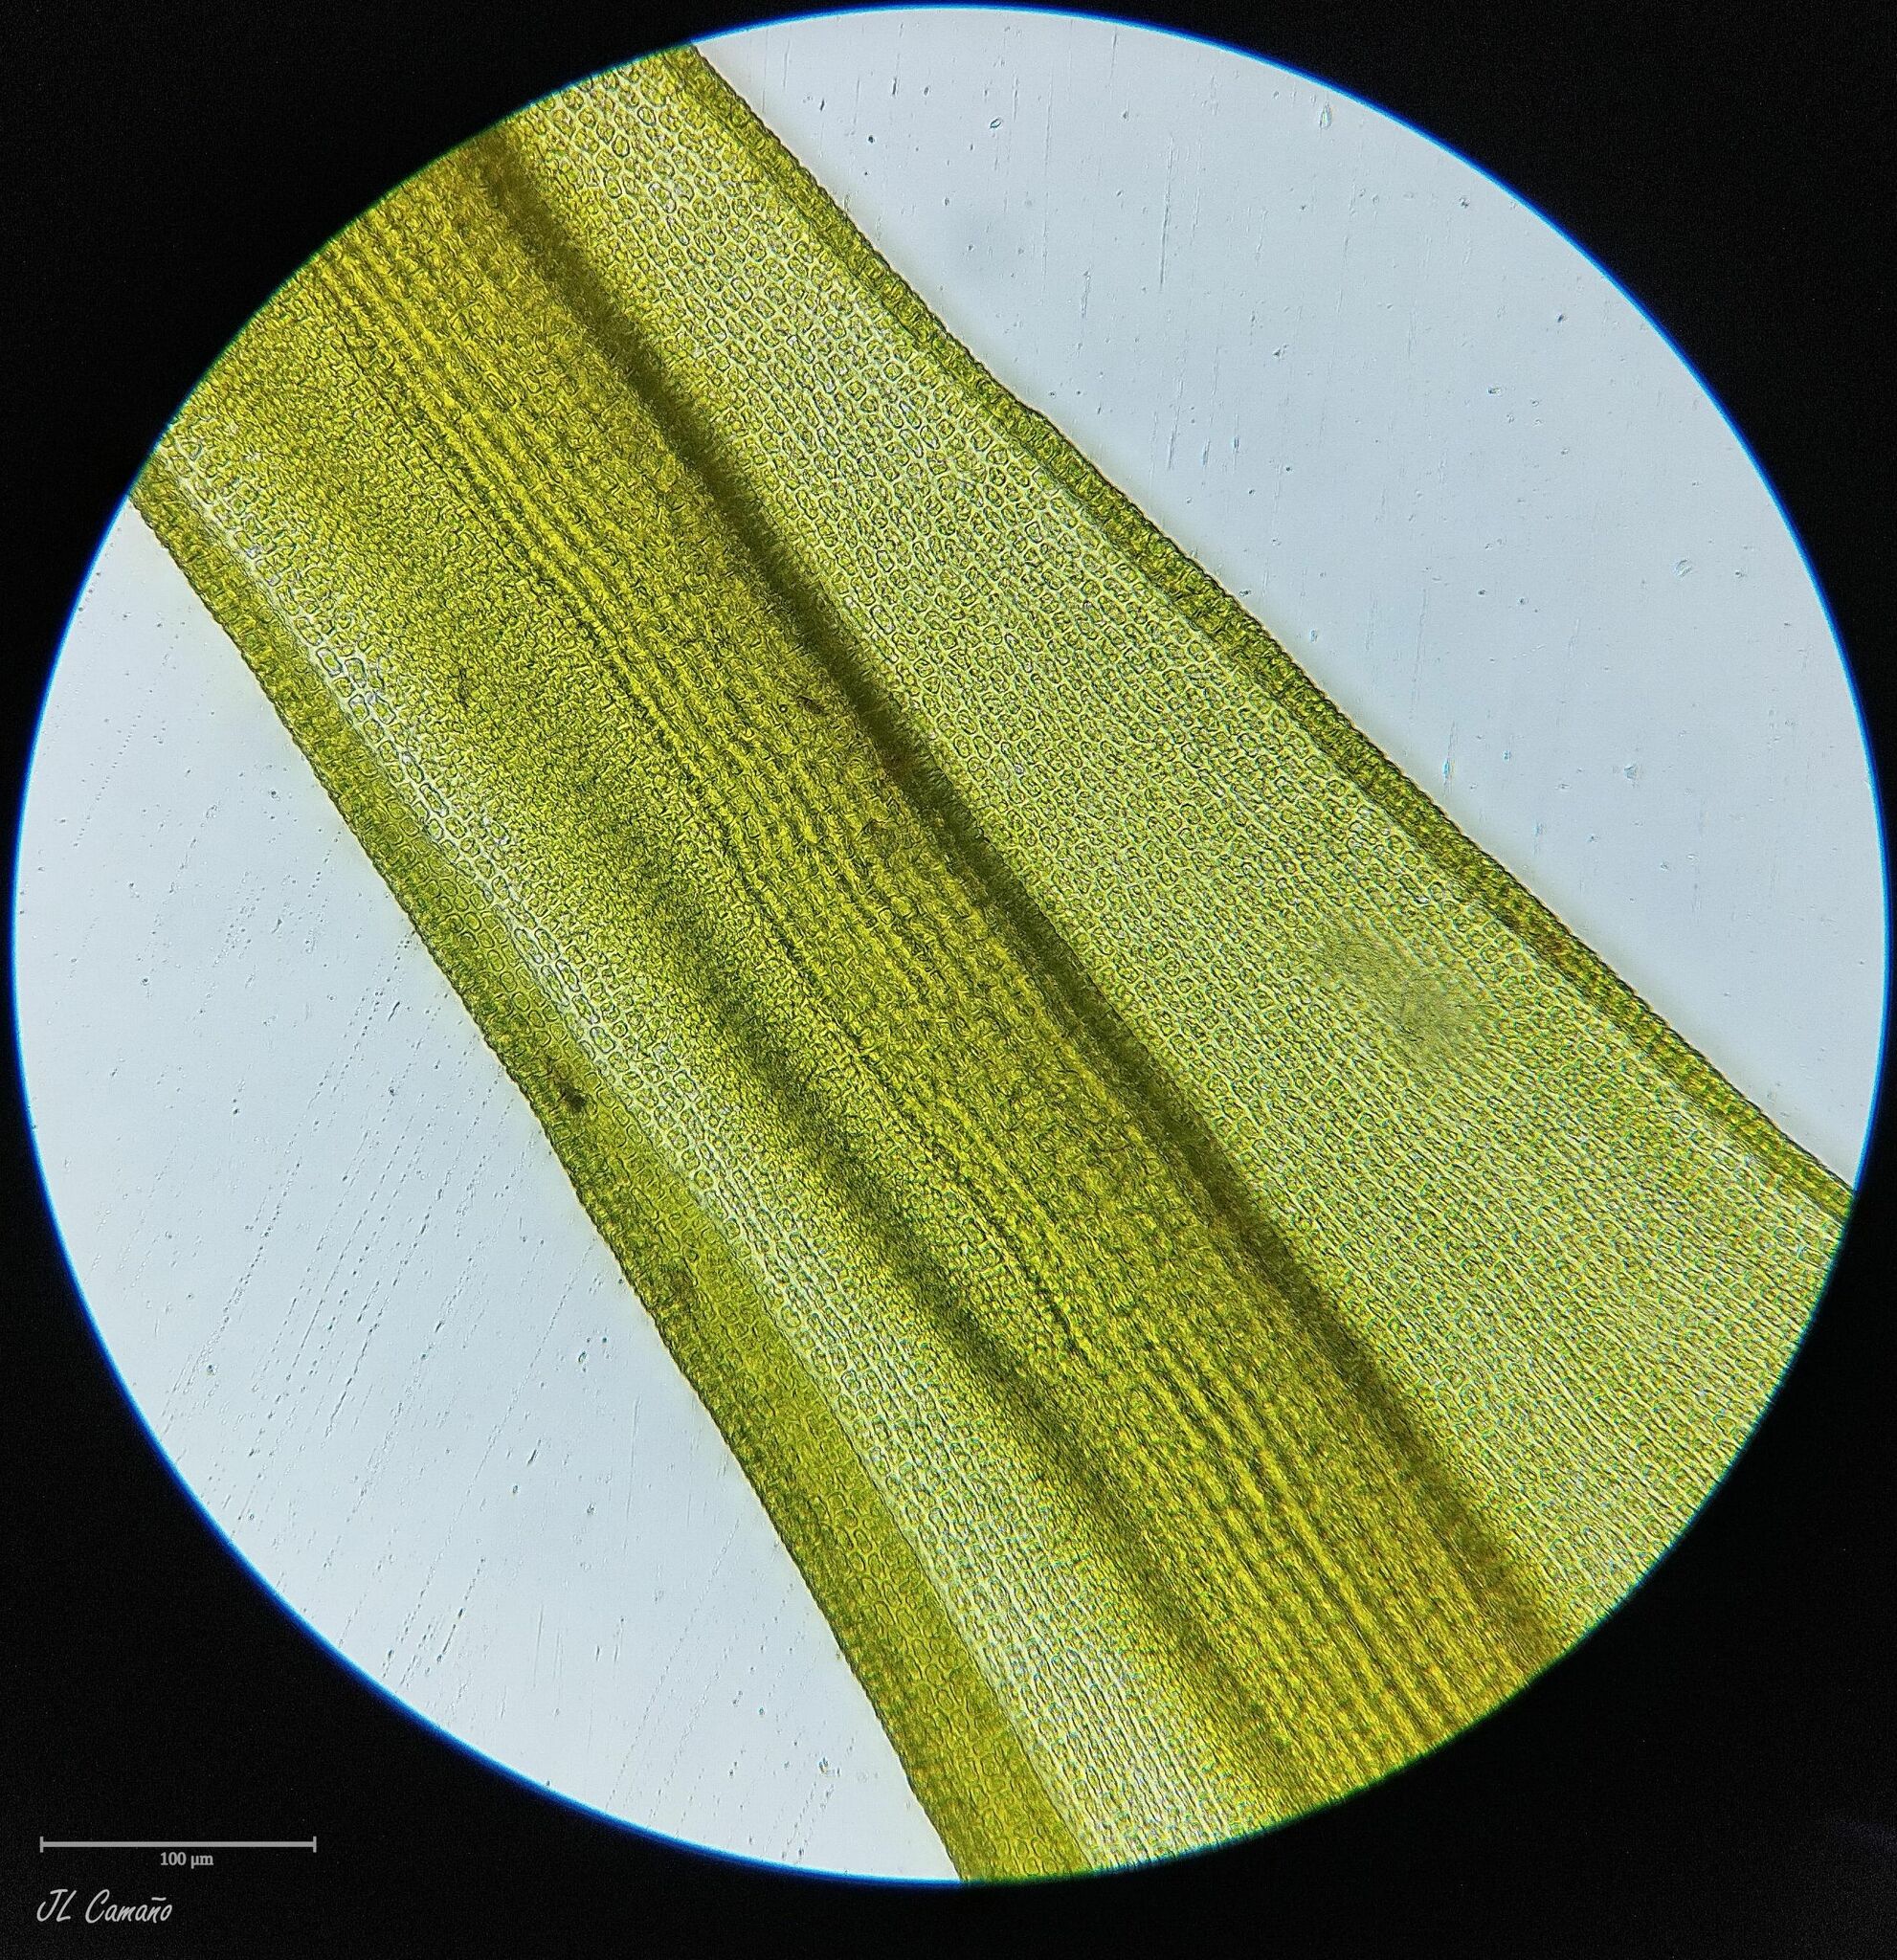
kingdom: Plantae
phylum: Bryophyta
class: Bryopsida
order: Grimmiales
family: Grimmiaceae
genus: Codriophorus
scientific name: Codriophorus aquaticus
